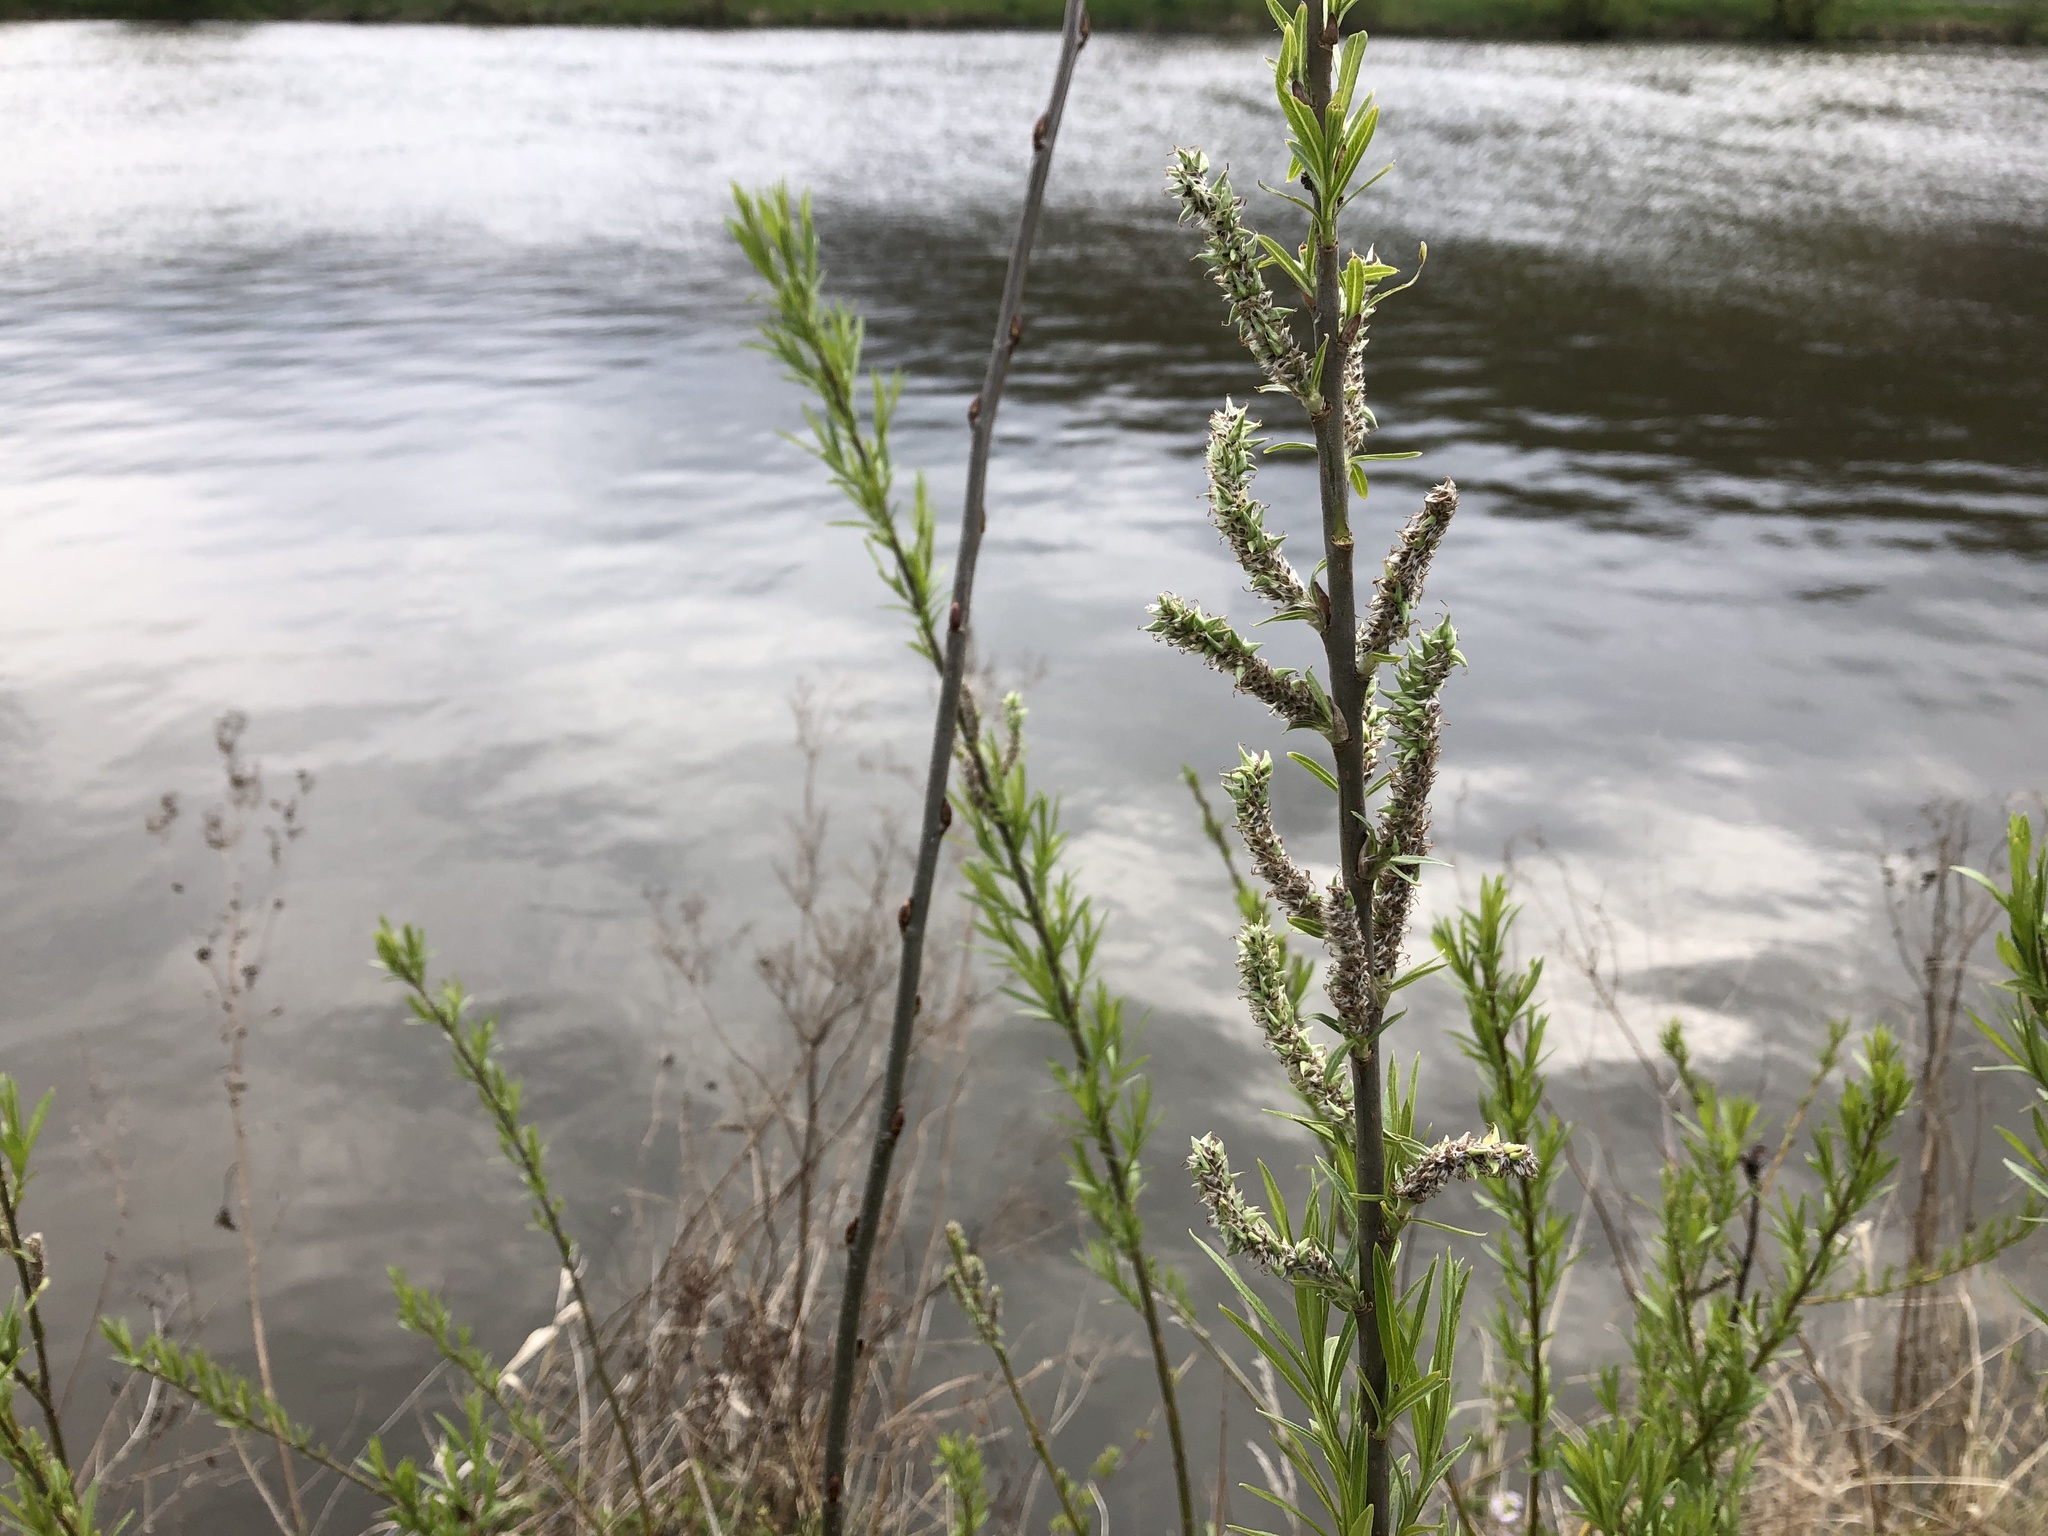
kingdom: Plantae
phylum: Tracheophyta
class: Magnoliopsida
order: Malpighiales
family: Salicaceae
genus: Salix
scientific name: Salix viminalis
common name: Osier
